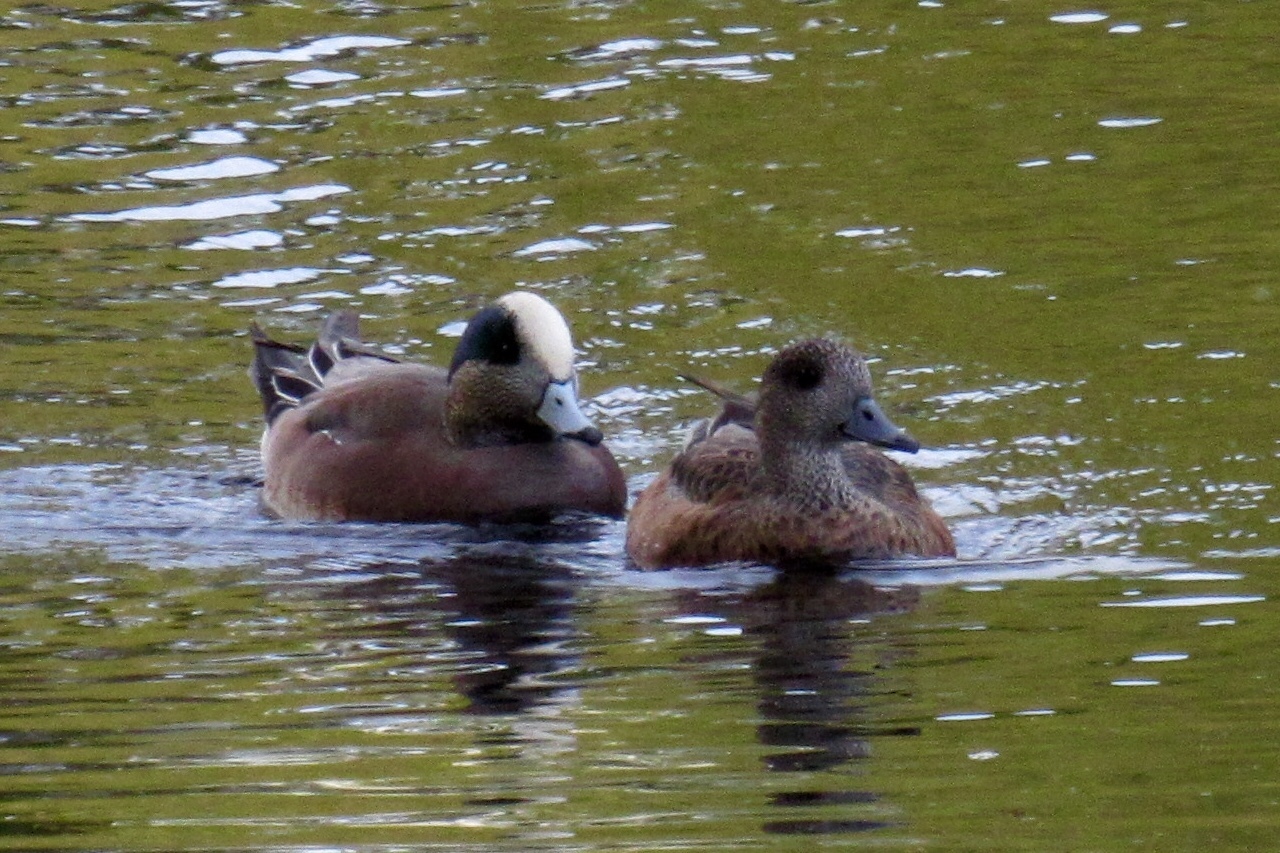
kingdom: Animalia
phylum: Chordata
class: Aves
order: Anseriformes
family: Anatidae
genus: Mareca
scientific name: Mareca americana
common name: American wigeon
